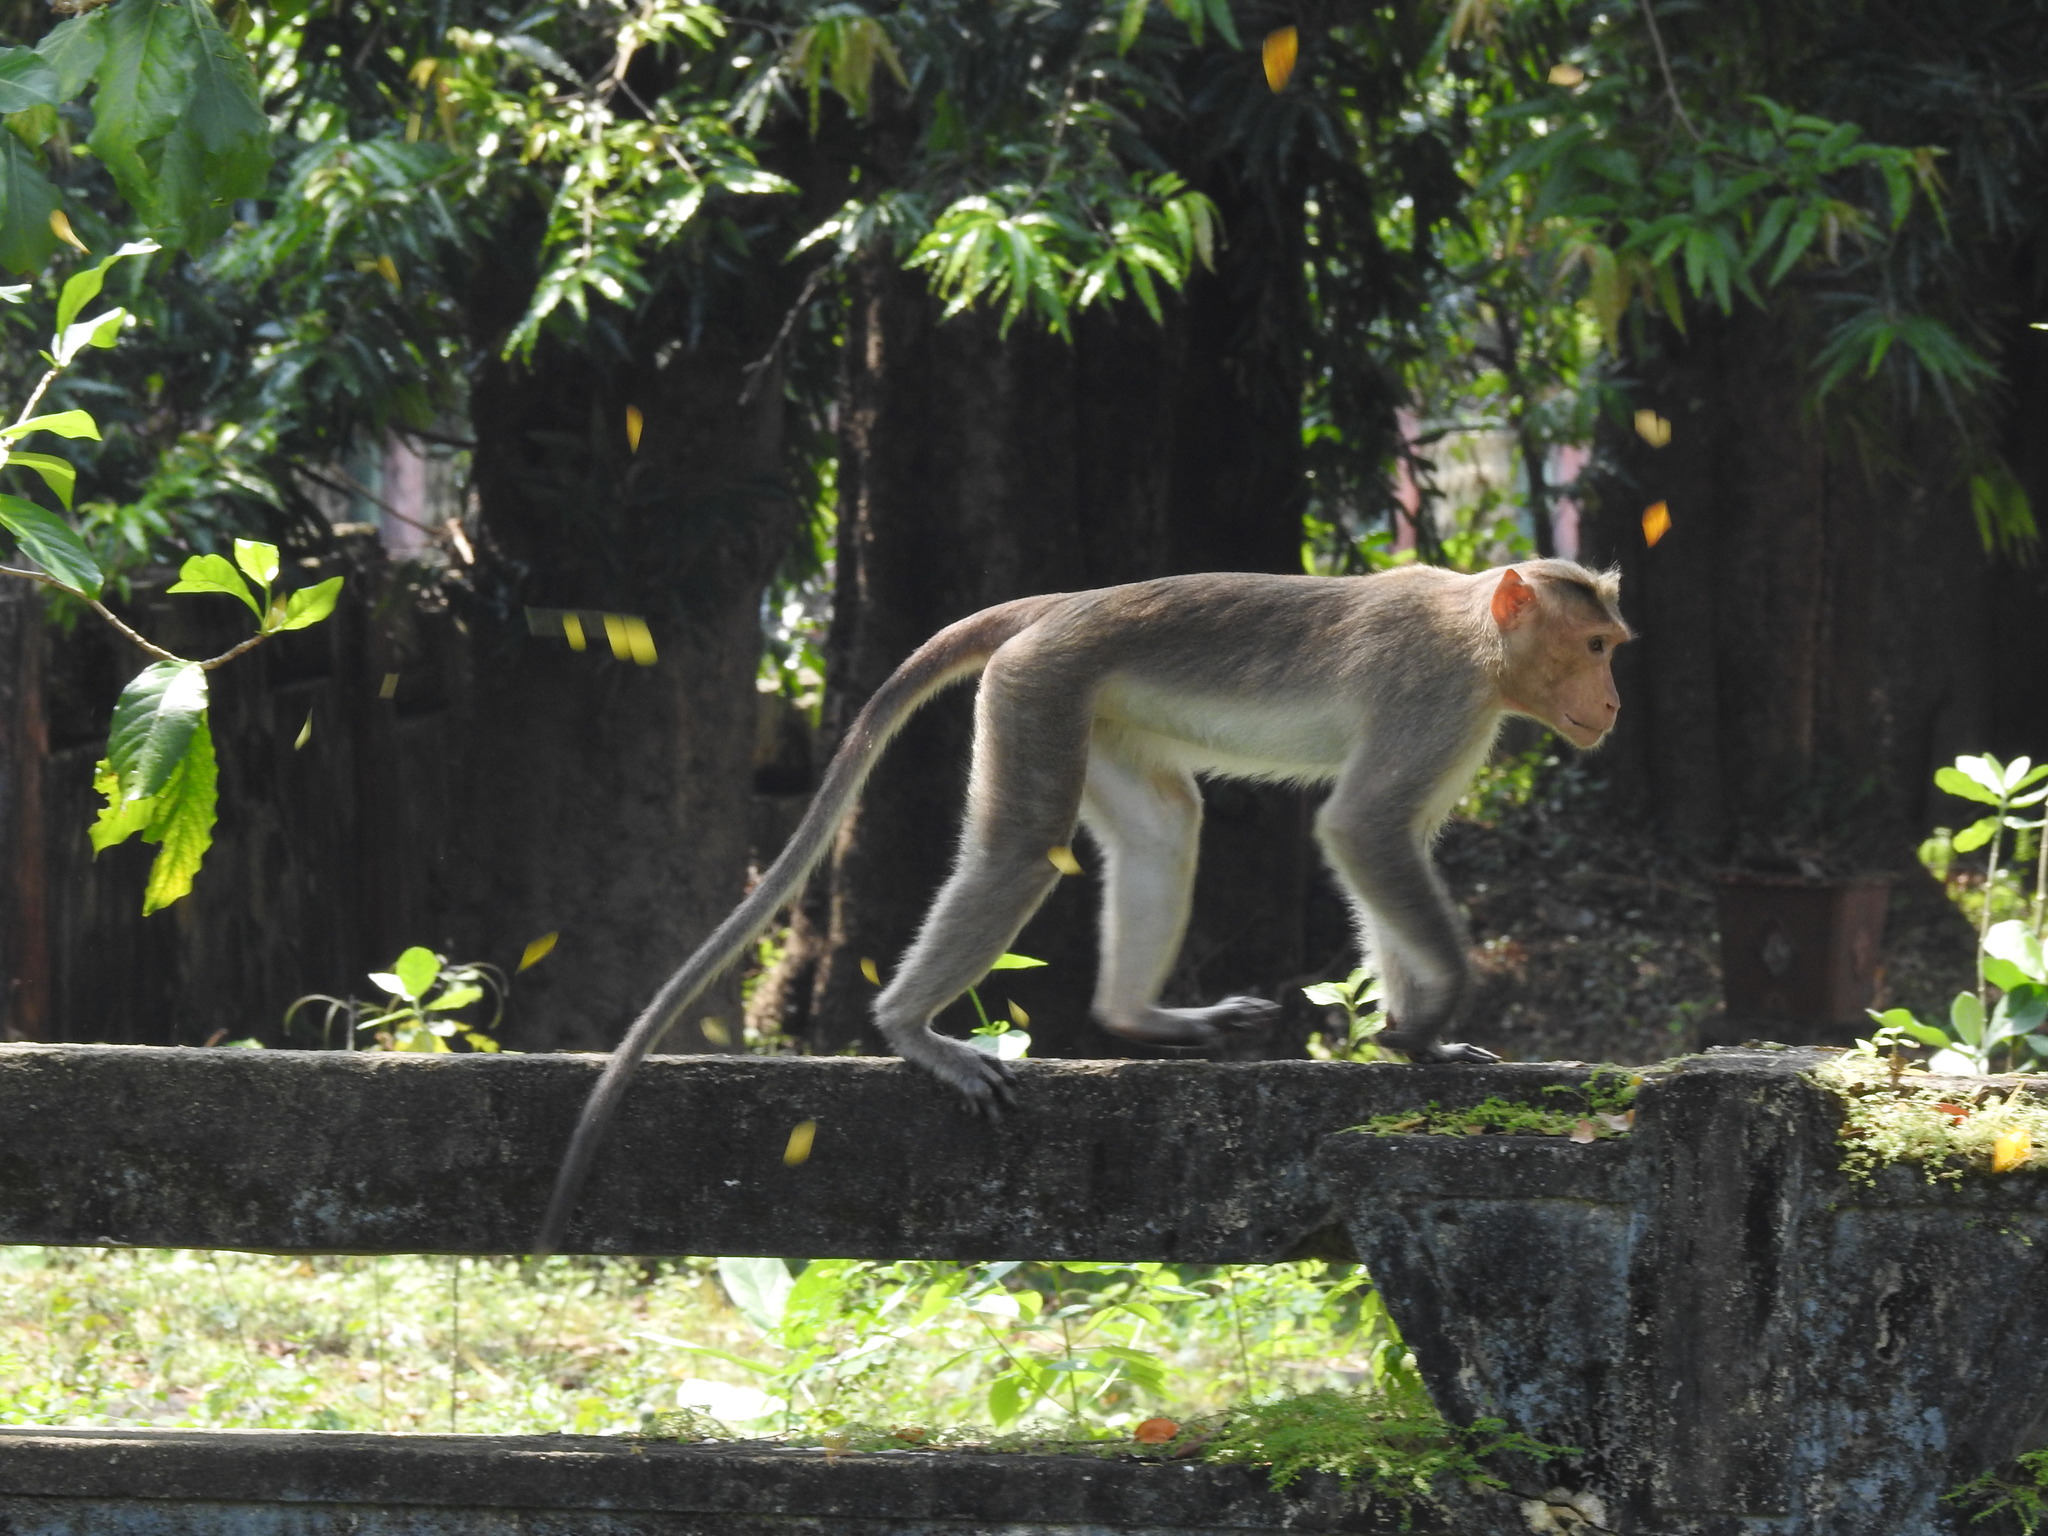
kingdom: Animalia
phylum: Chordata
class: Mammalia
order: Primates
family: Cercopithecidae
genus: Macaca
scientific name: Macaca radiata
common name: Bonnet macaque
